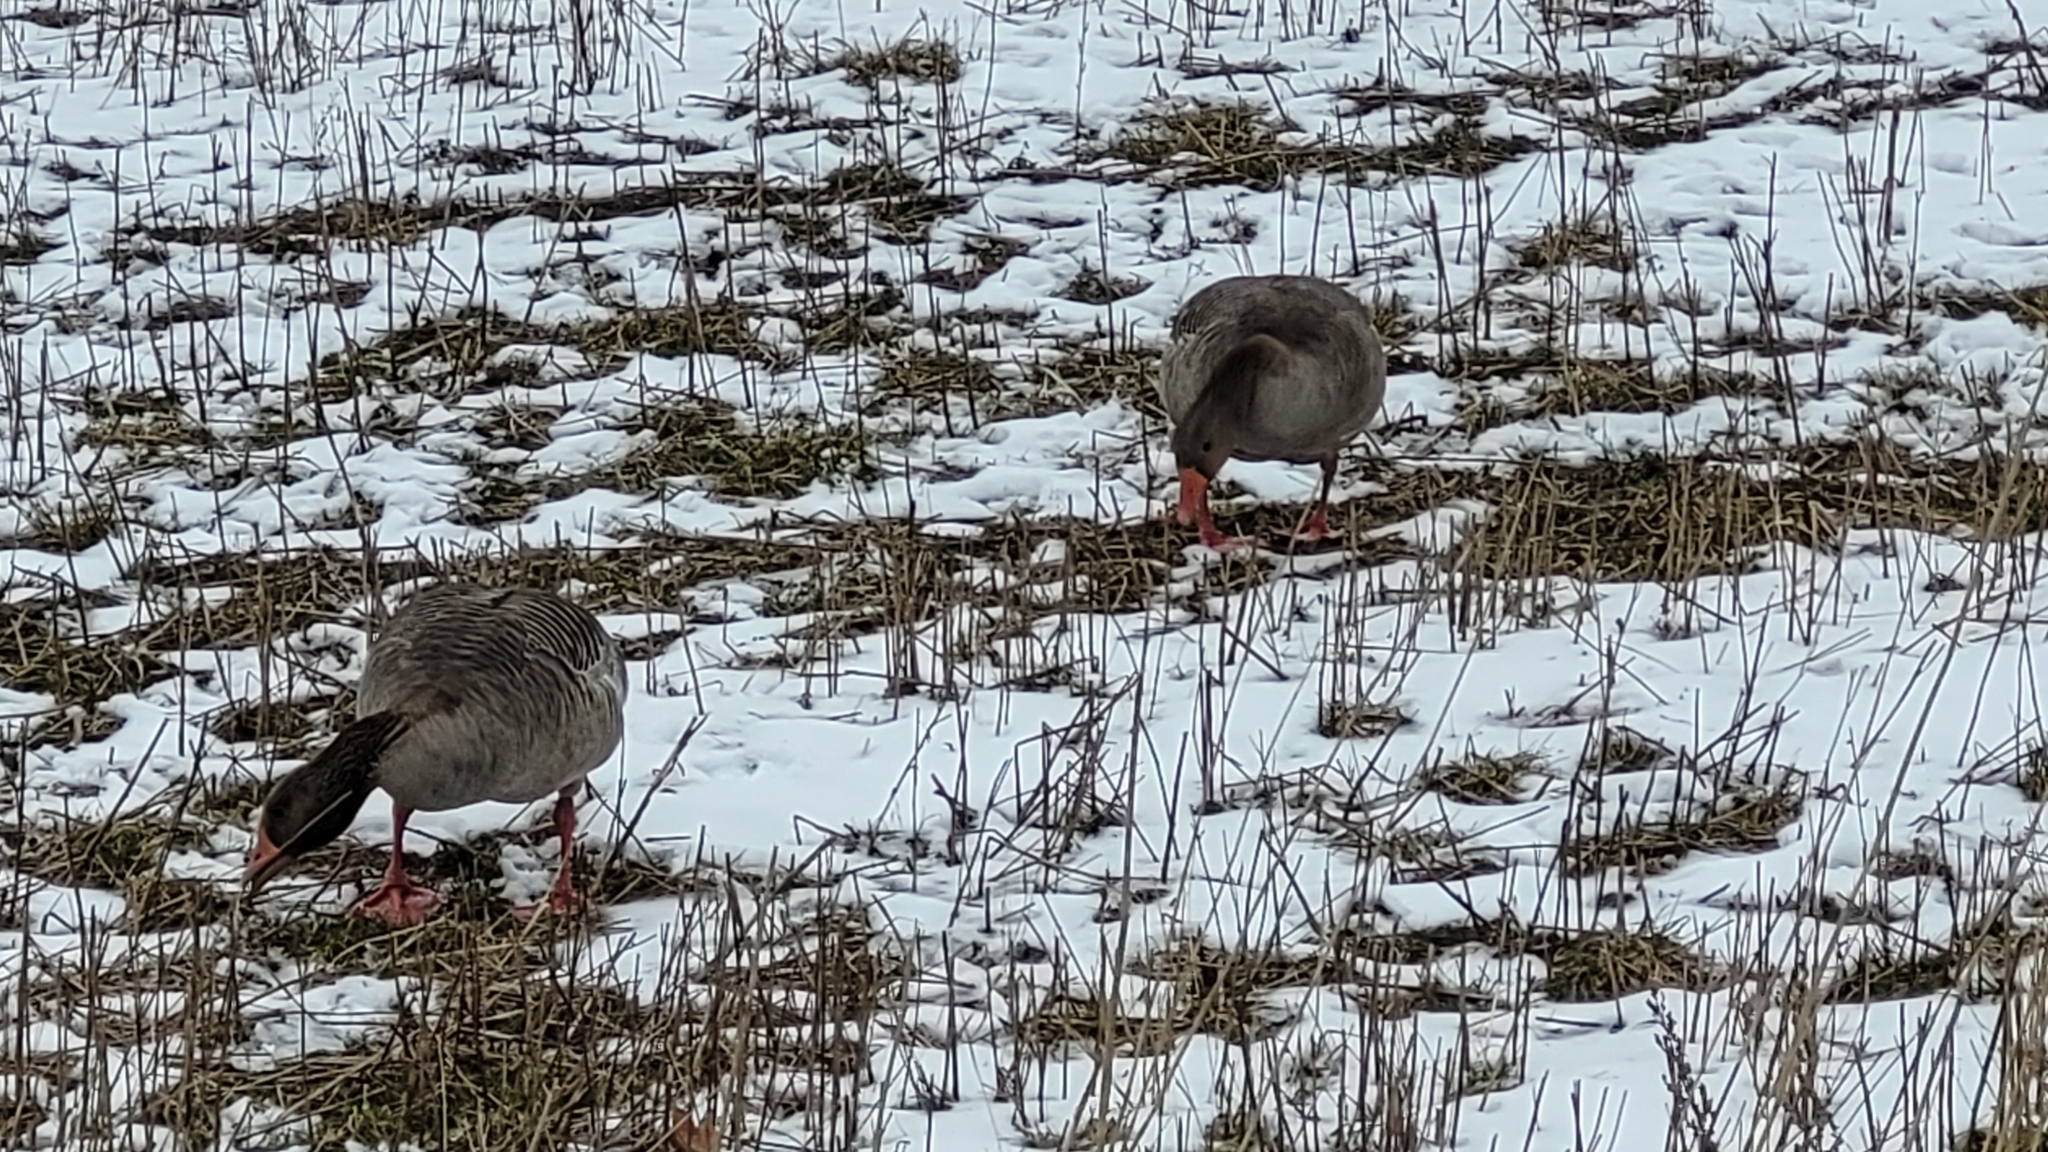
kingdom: Animalia
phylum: Chordata
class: Aves
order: Anseriformes
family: Anatidae
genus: Anser
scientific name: Anser anser
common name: Greylag goose
